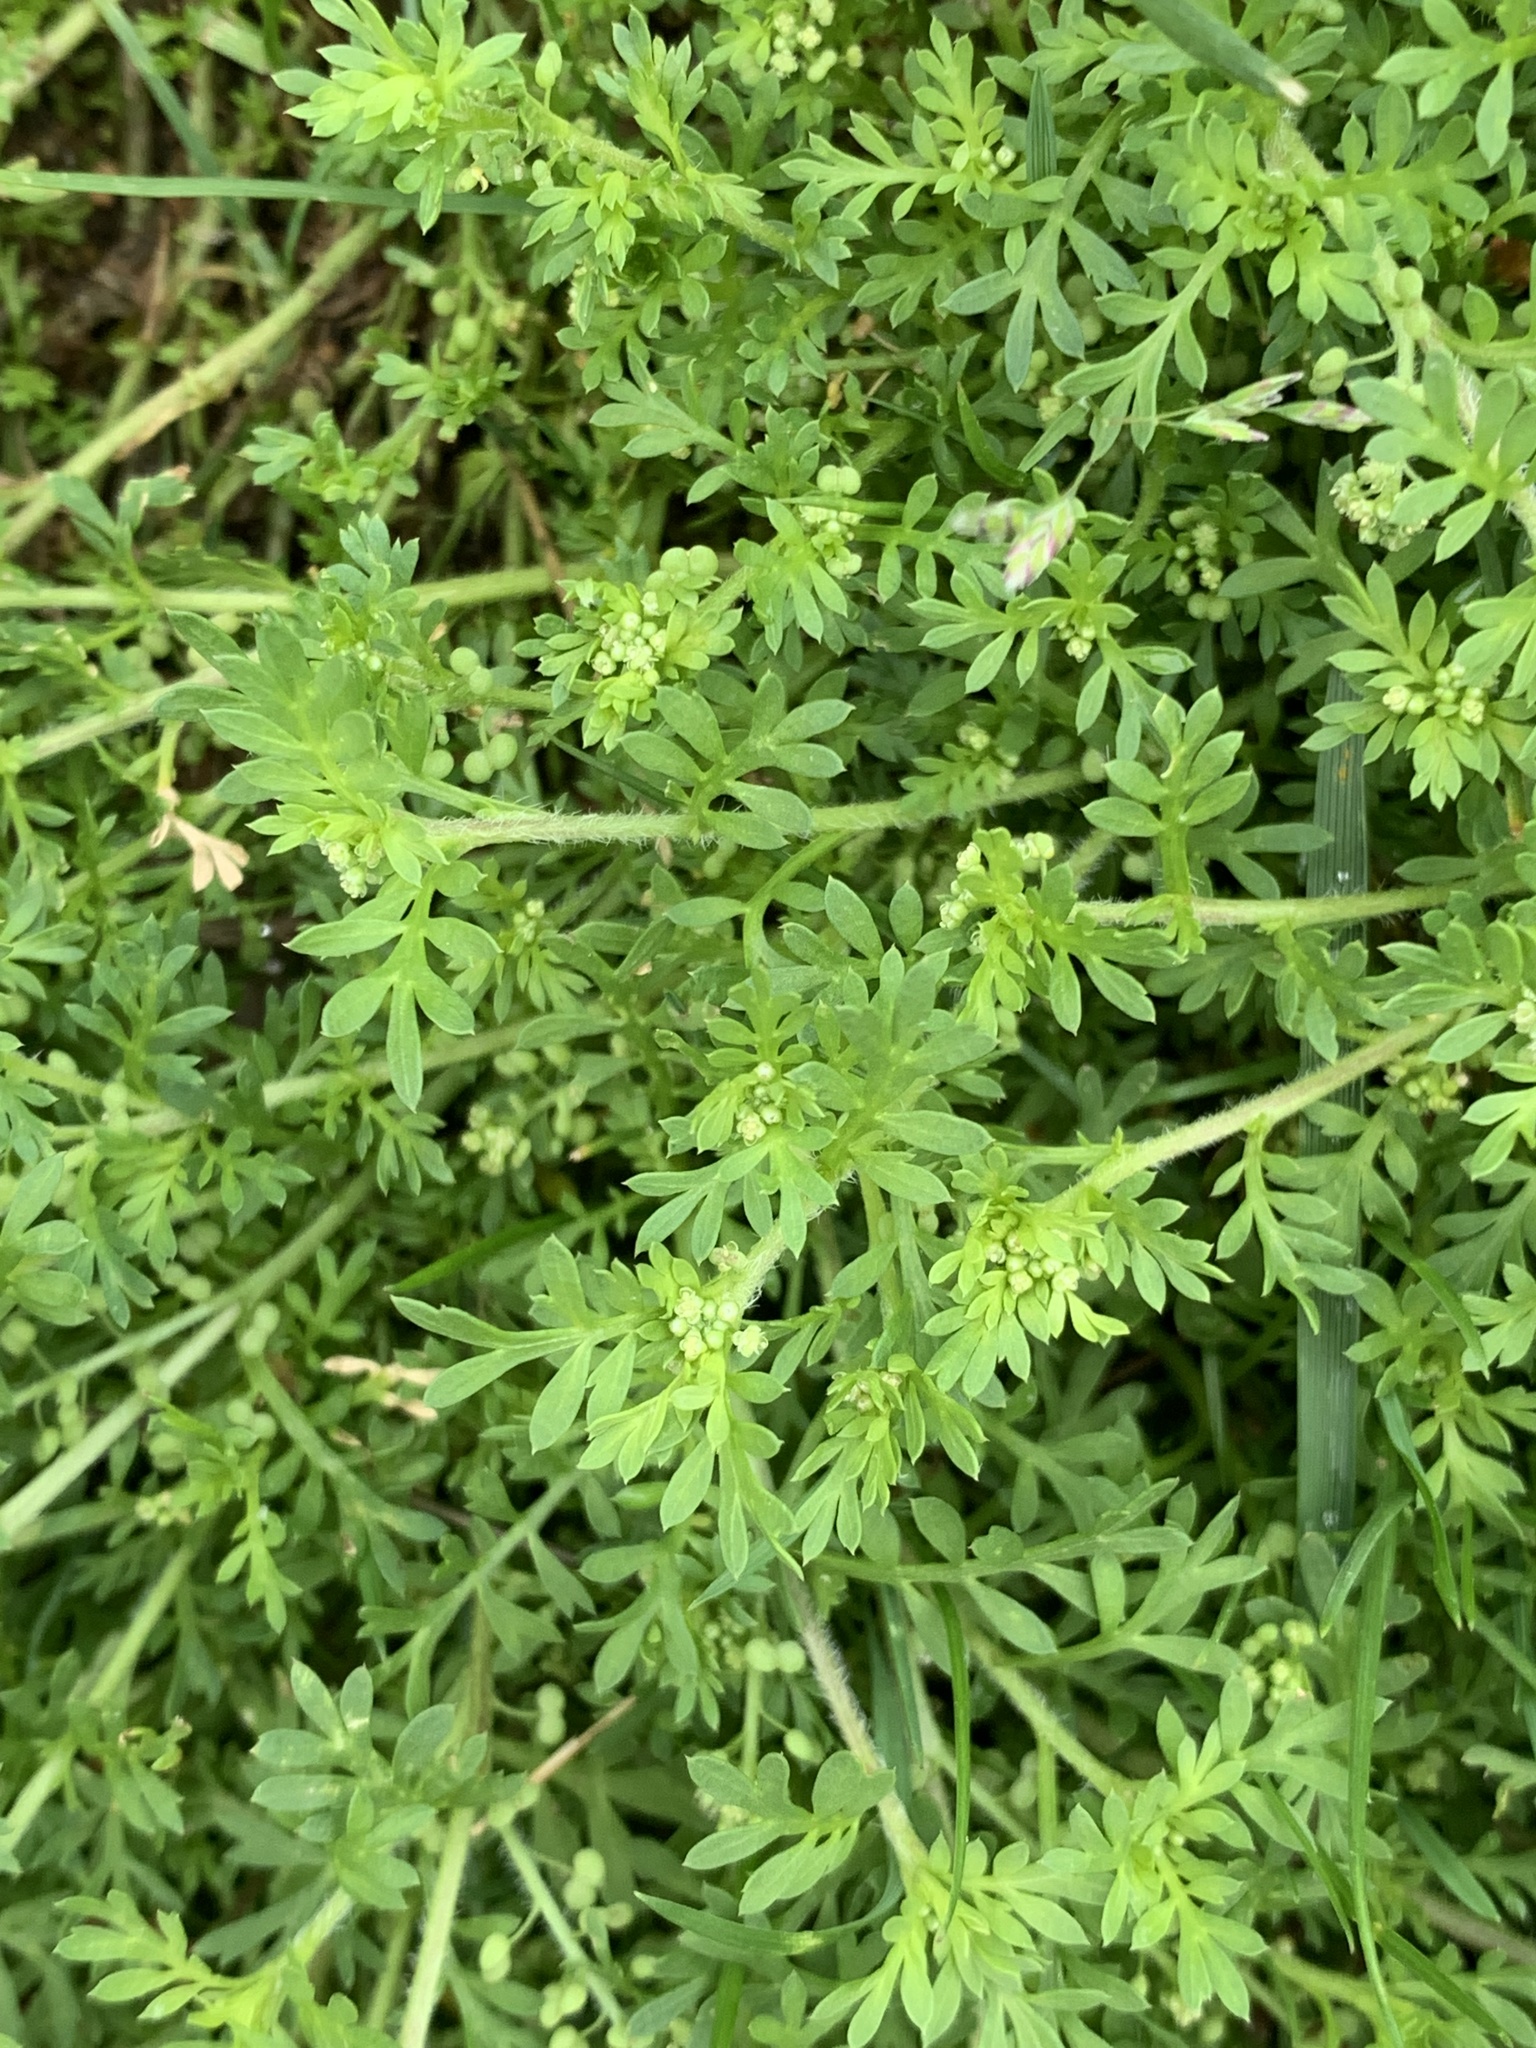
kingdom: Plantae
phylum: Tracheophyta
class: Magnoliopsida
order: Brassicales
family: Brassicaceae
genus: Lepidium
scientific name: Lepidium didymum
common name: Lesser swinecress
